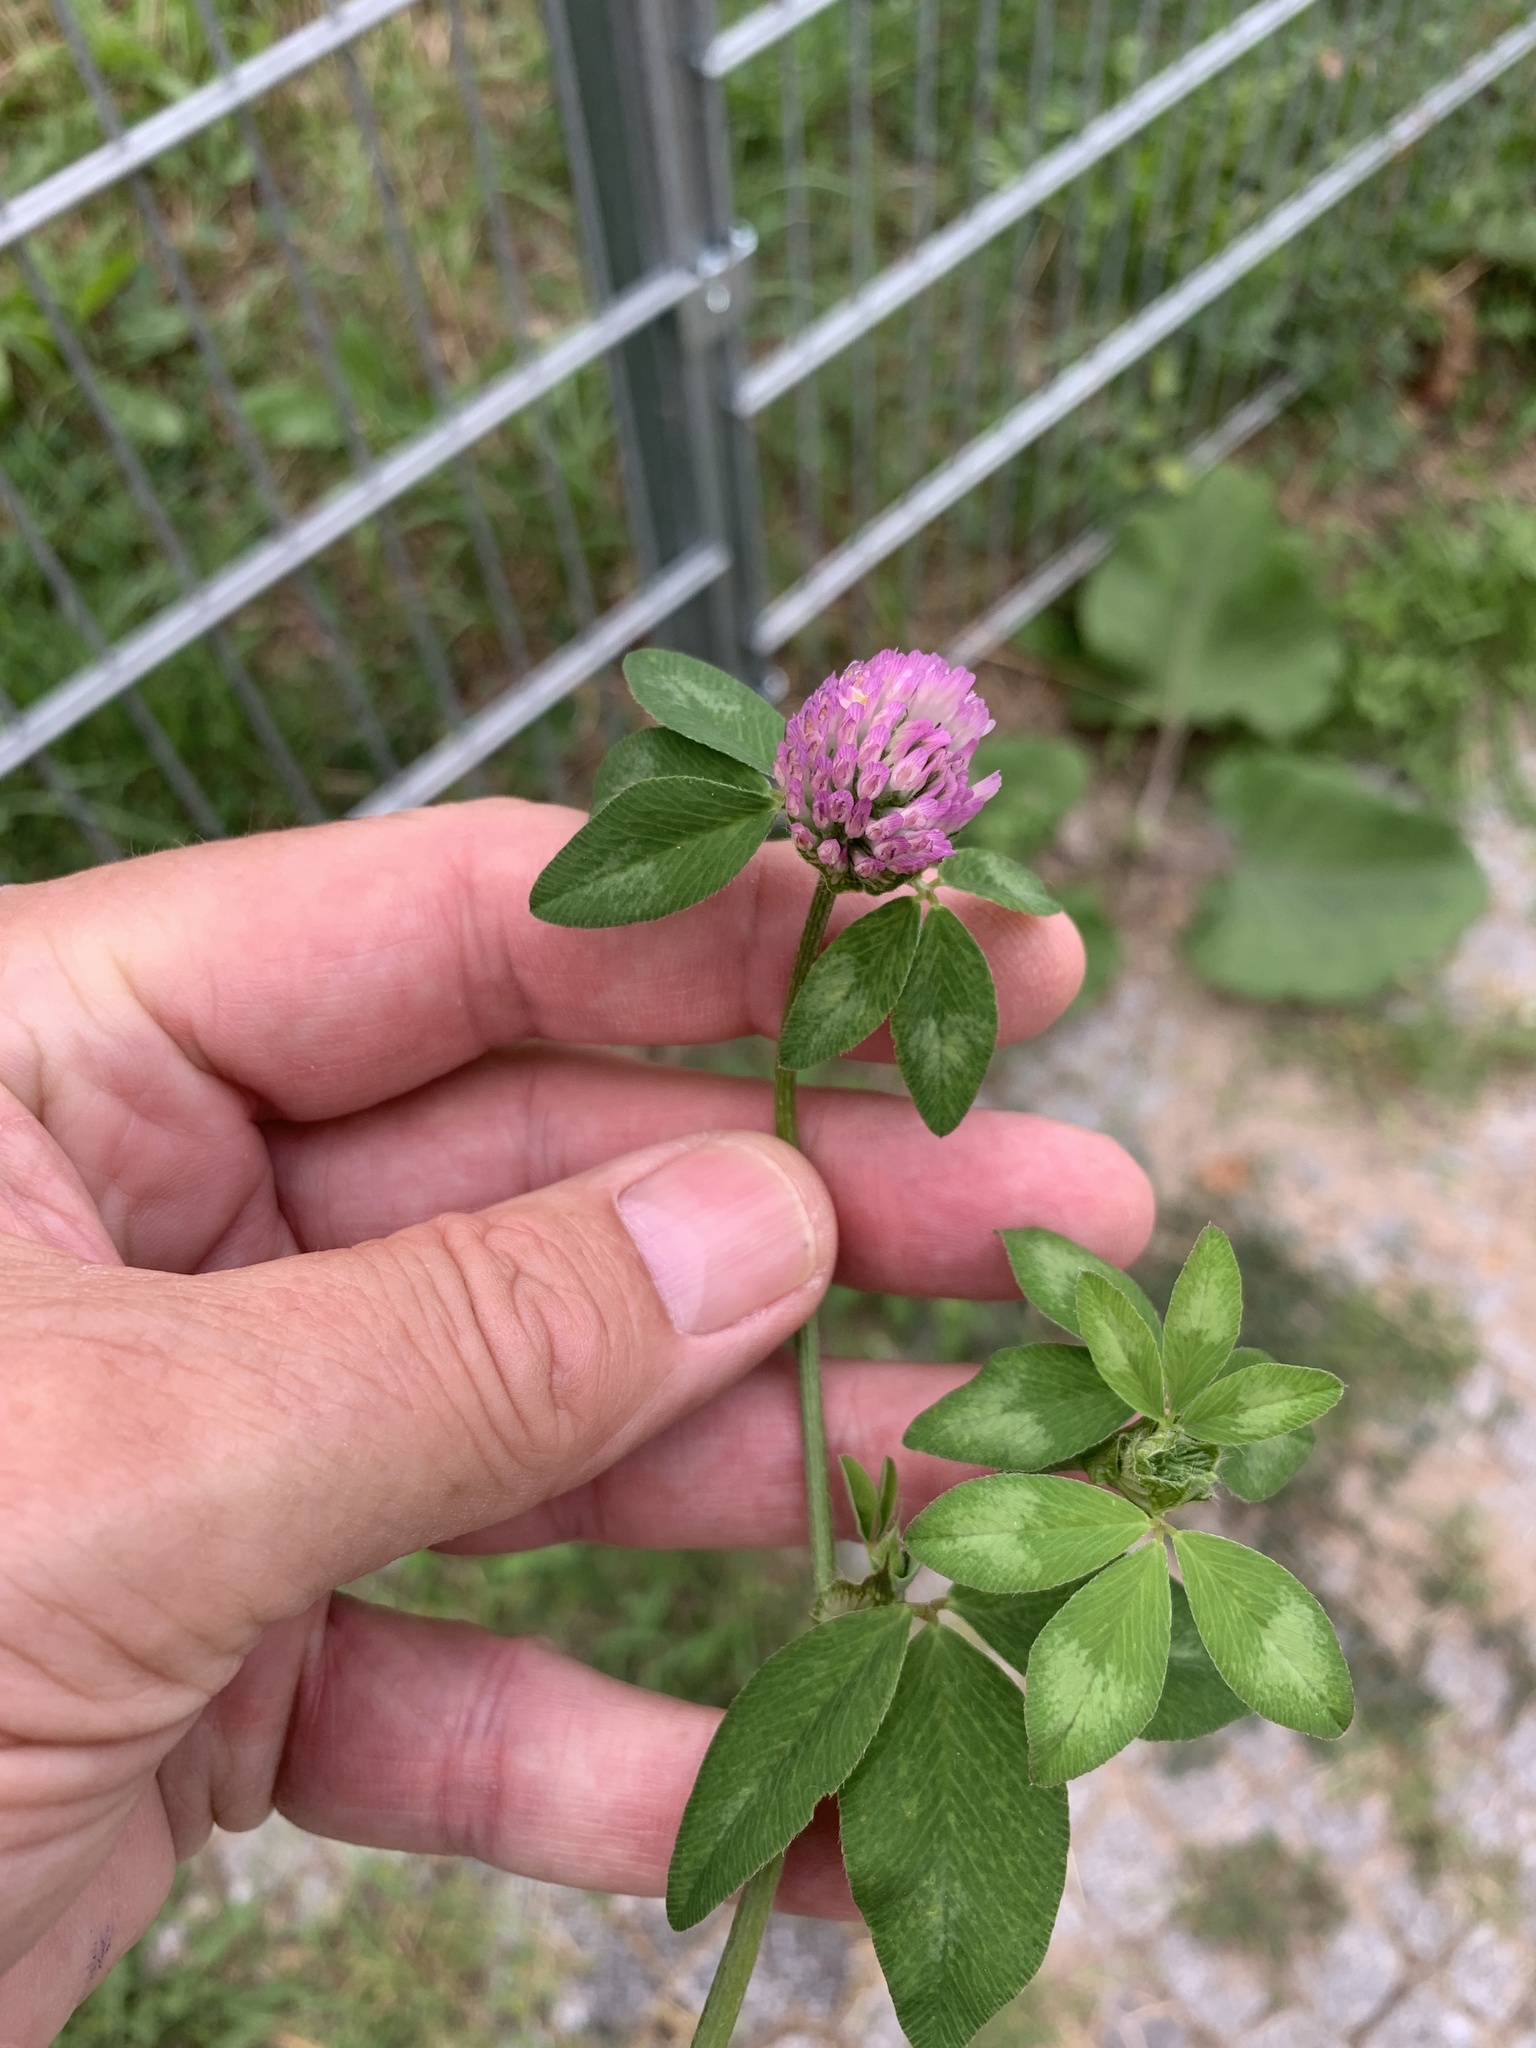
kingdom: Plantae
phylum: Tracheophyta
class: Magnoliopsida
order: Fabales
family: Fabaceae
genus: Trifolium
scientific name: Trifolium pratense
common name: Red clover
